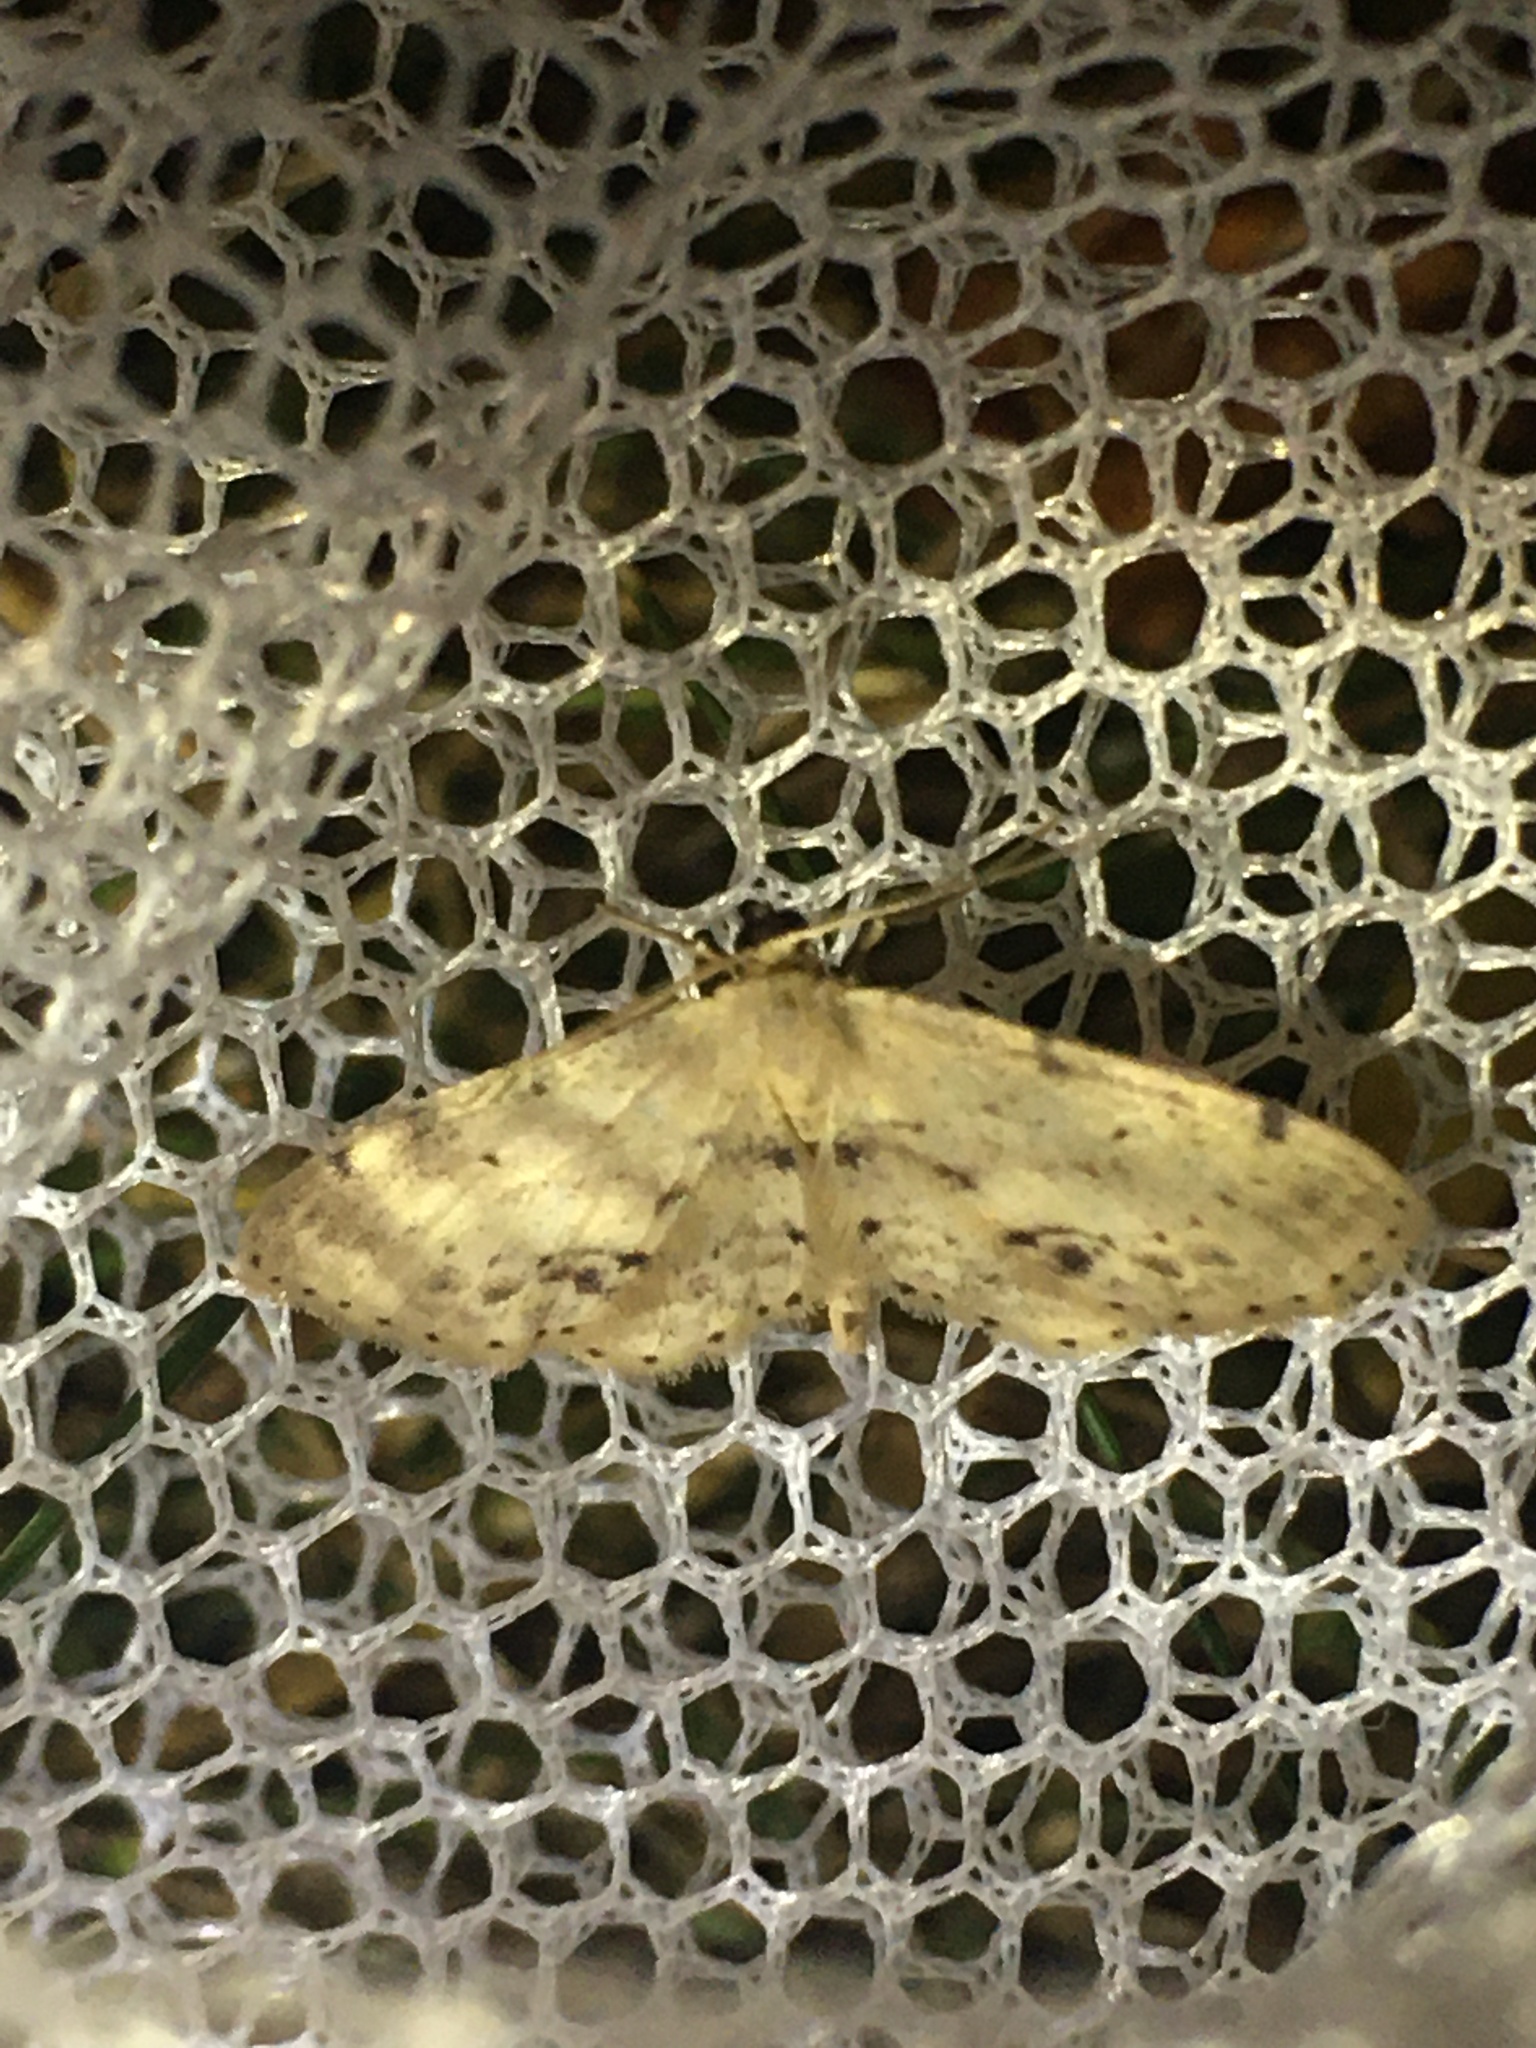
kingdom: Animalia
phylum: Arthropoda
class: Insecta
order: Lepidoptera
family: Geometridae
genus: Idaea
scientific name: Idaea dimidiata
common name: Single-dotted wave
